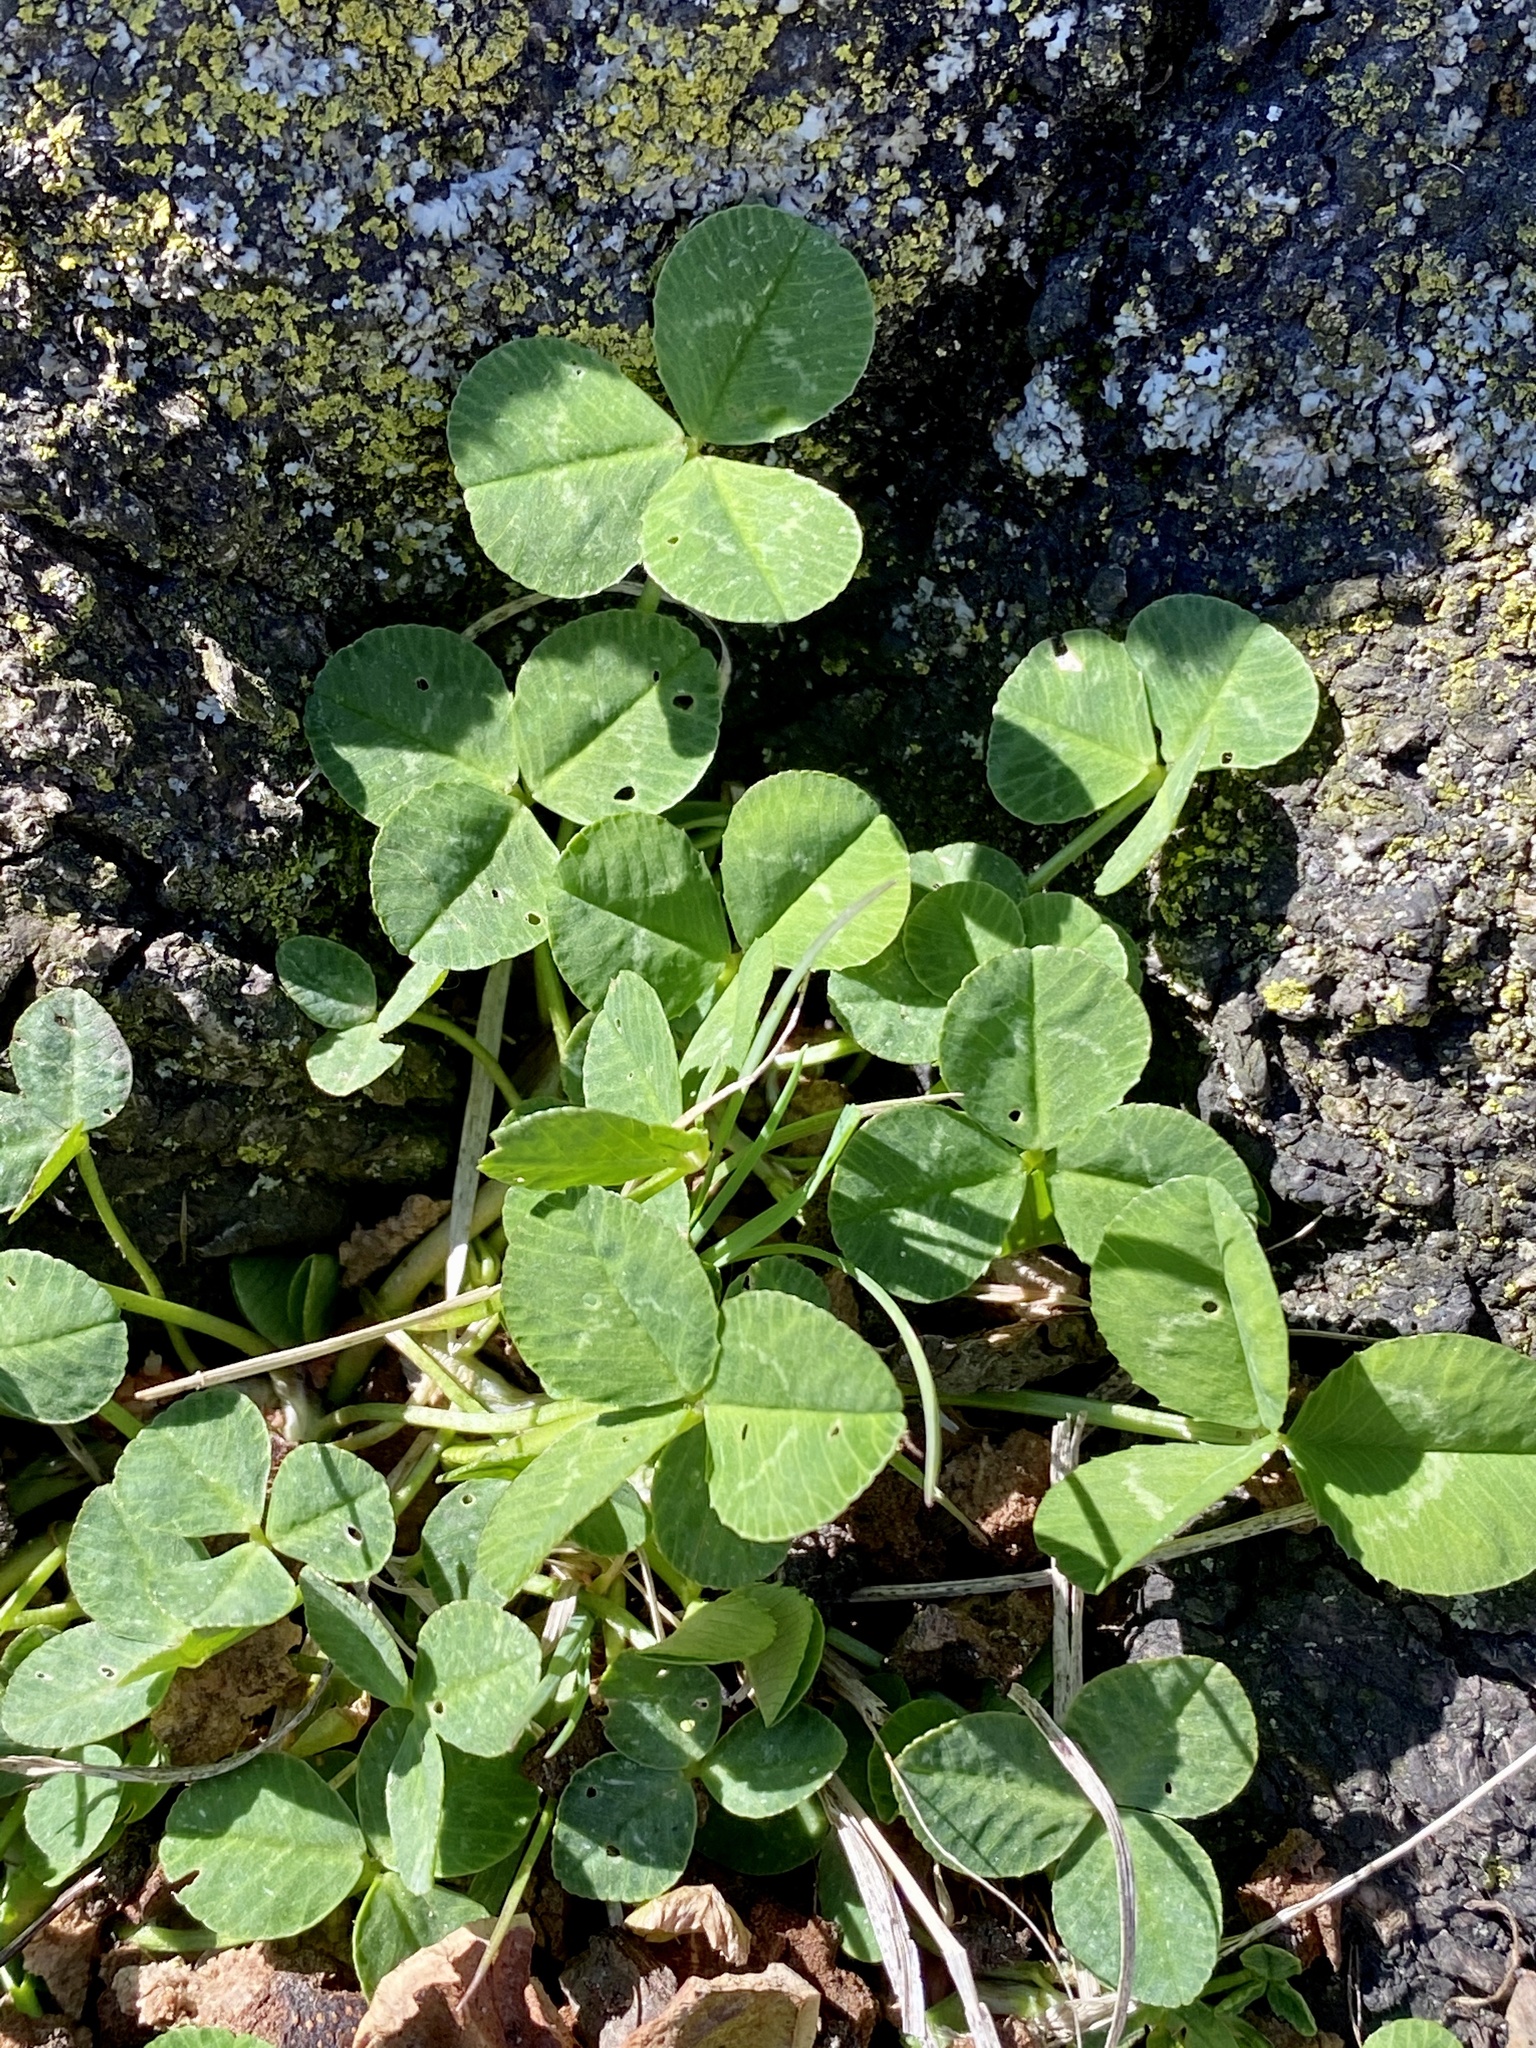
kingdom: Plantae
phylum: Tracheophyta
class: Magnoliopsida
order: Fabales
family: Fabaceae
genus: Trifolium
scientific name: Trifolium repens
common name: White clover
